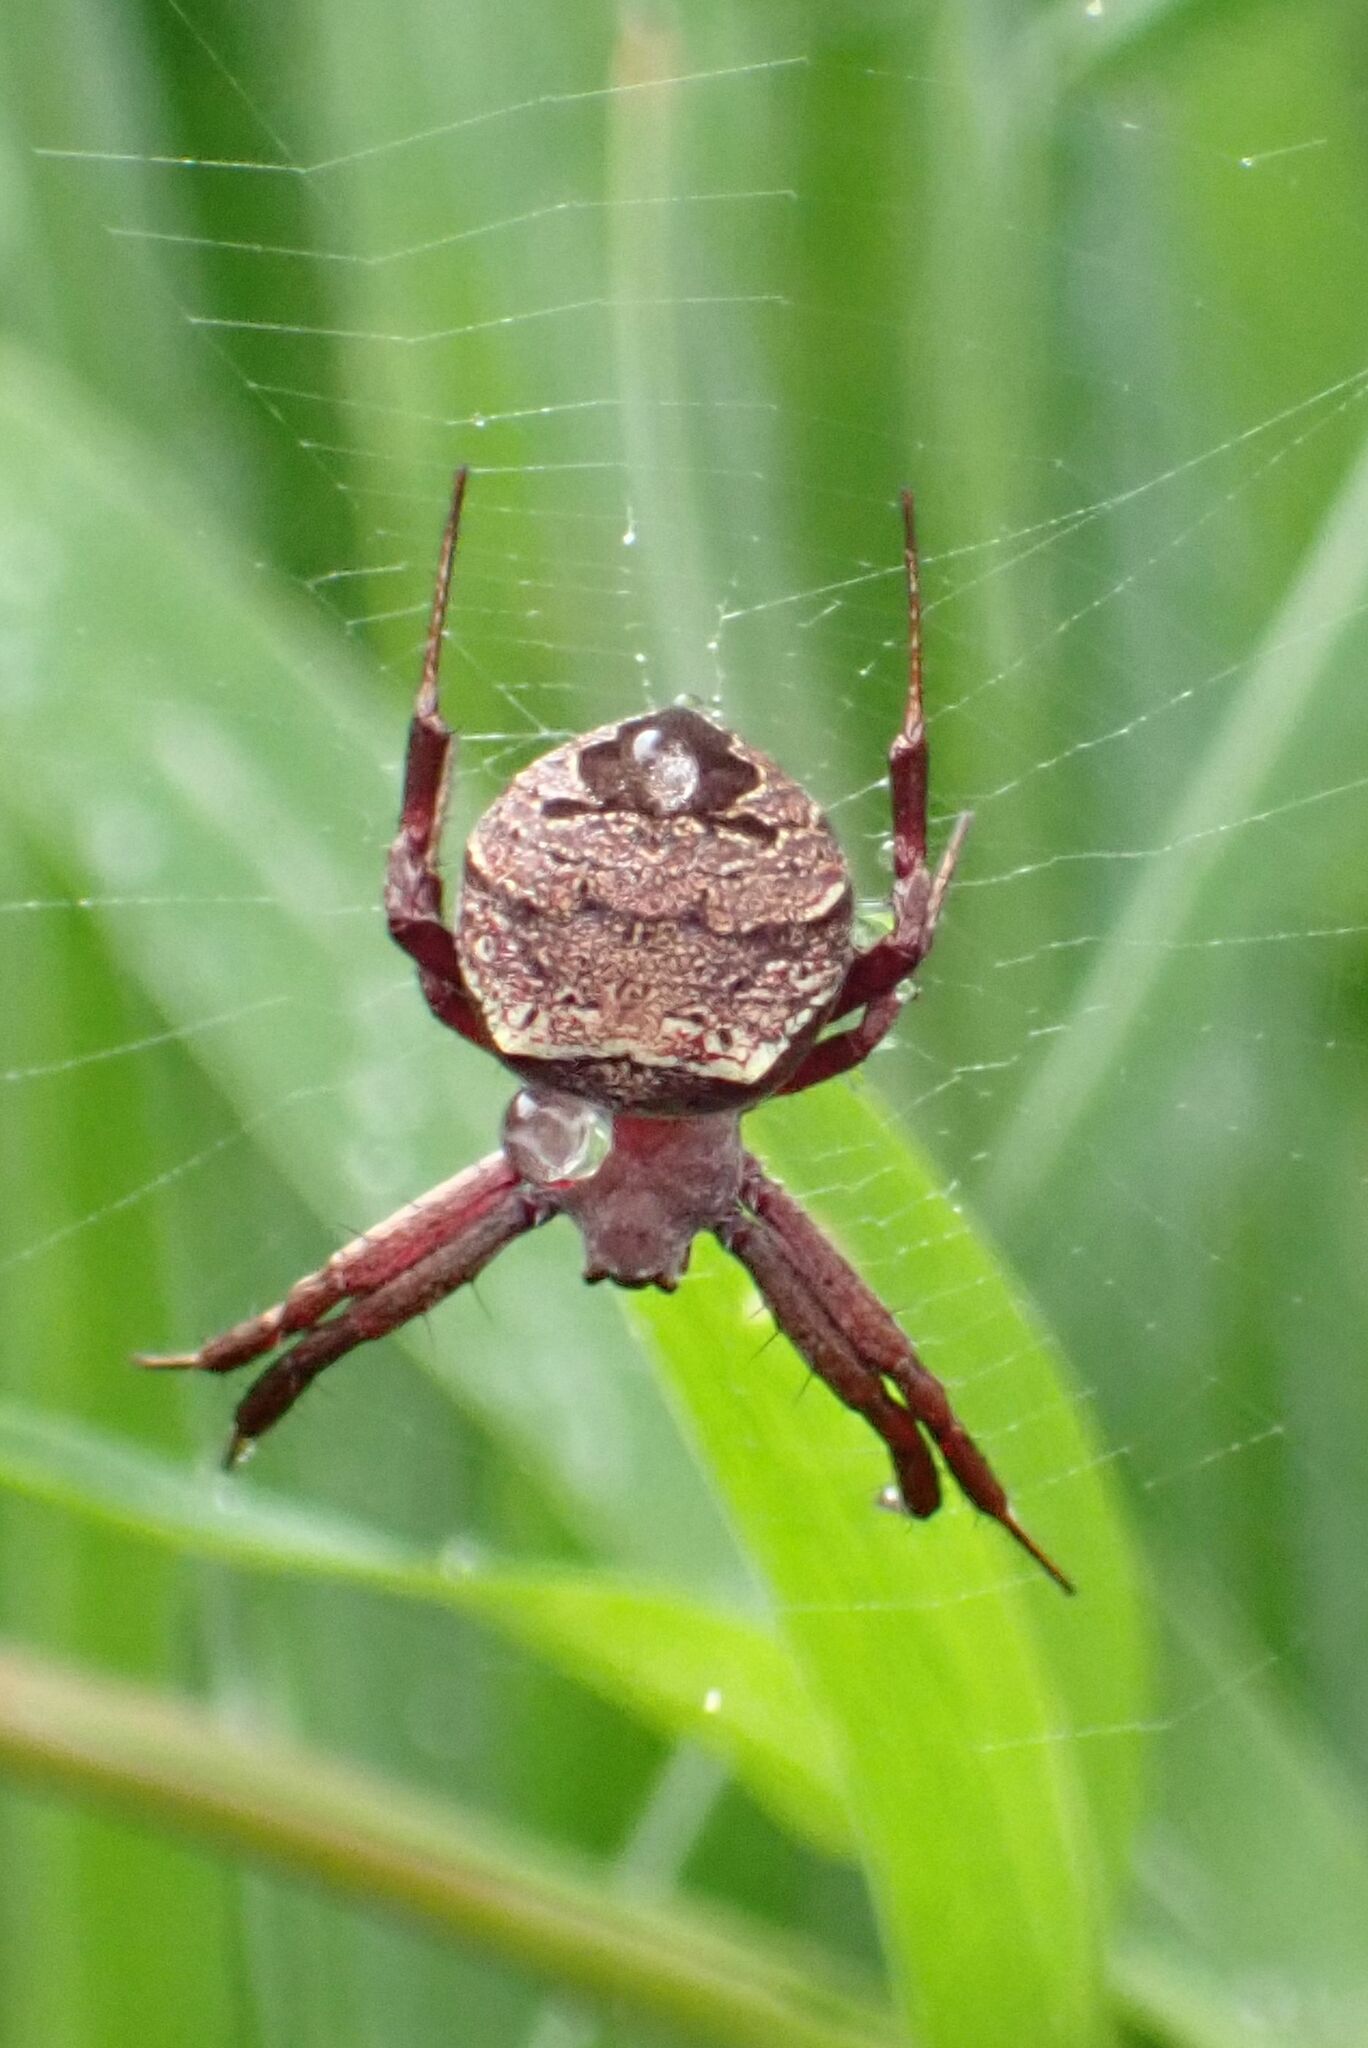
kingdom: Animalia
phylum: Arthropoda
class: Arachnida
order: Araneae
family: Araneidae
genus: Gea
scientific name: Gea infuscata
